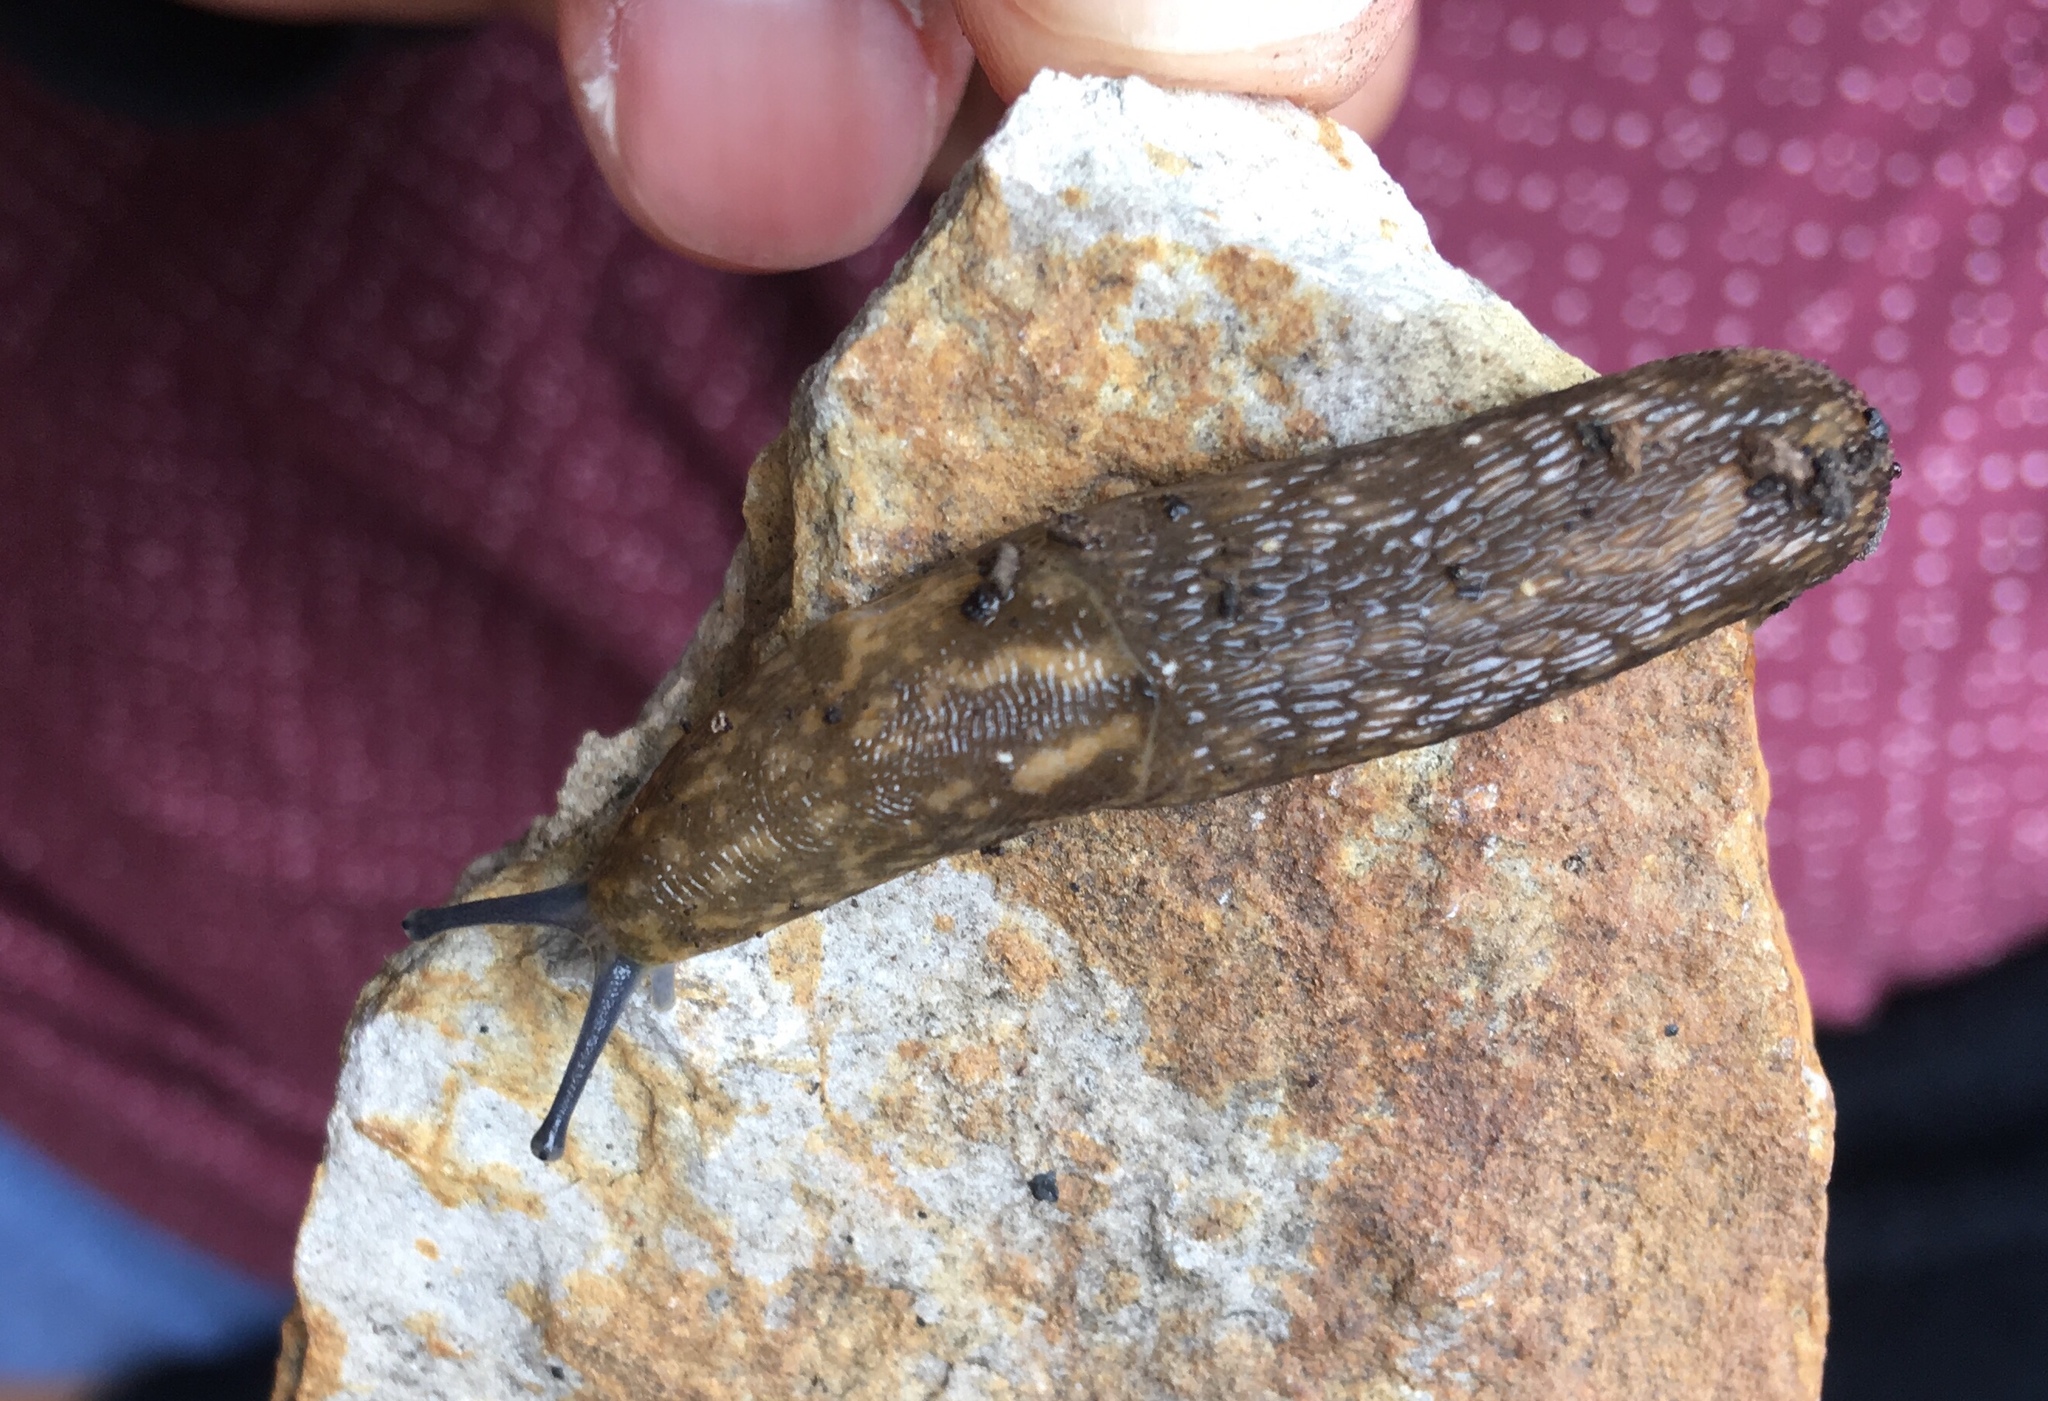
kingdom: Animalia
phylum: Mollusca
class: Gastropoda
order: Stylommatophora
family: Limacidae
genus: Limacus
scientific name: Limacus flavus
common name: Yellow gardenslug
